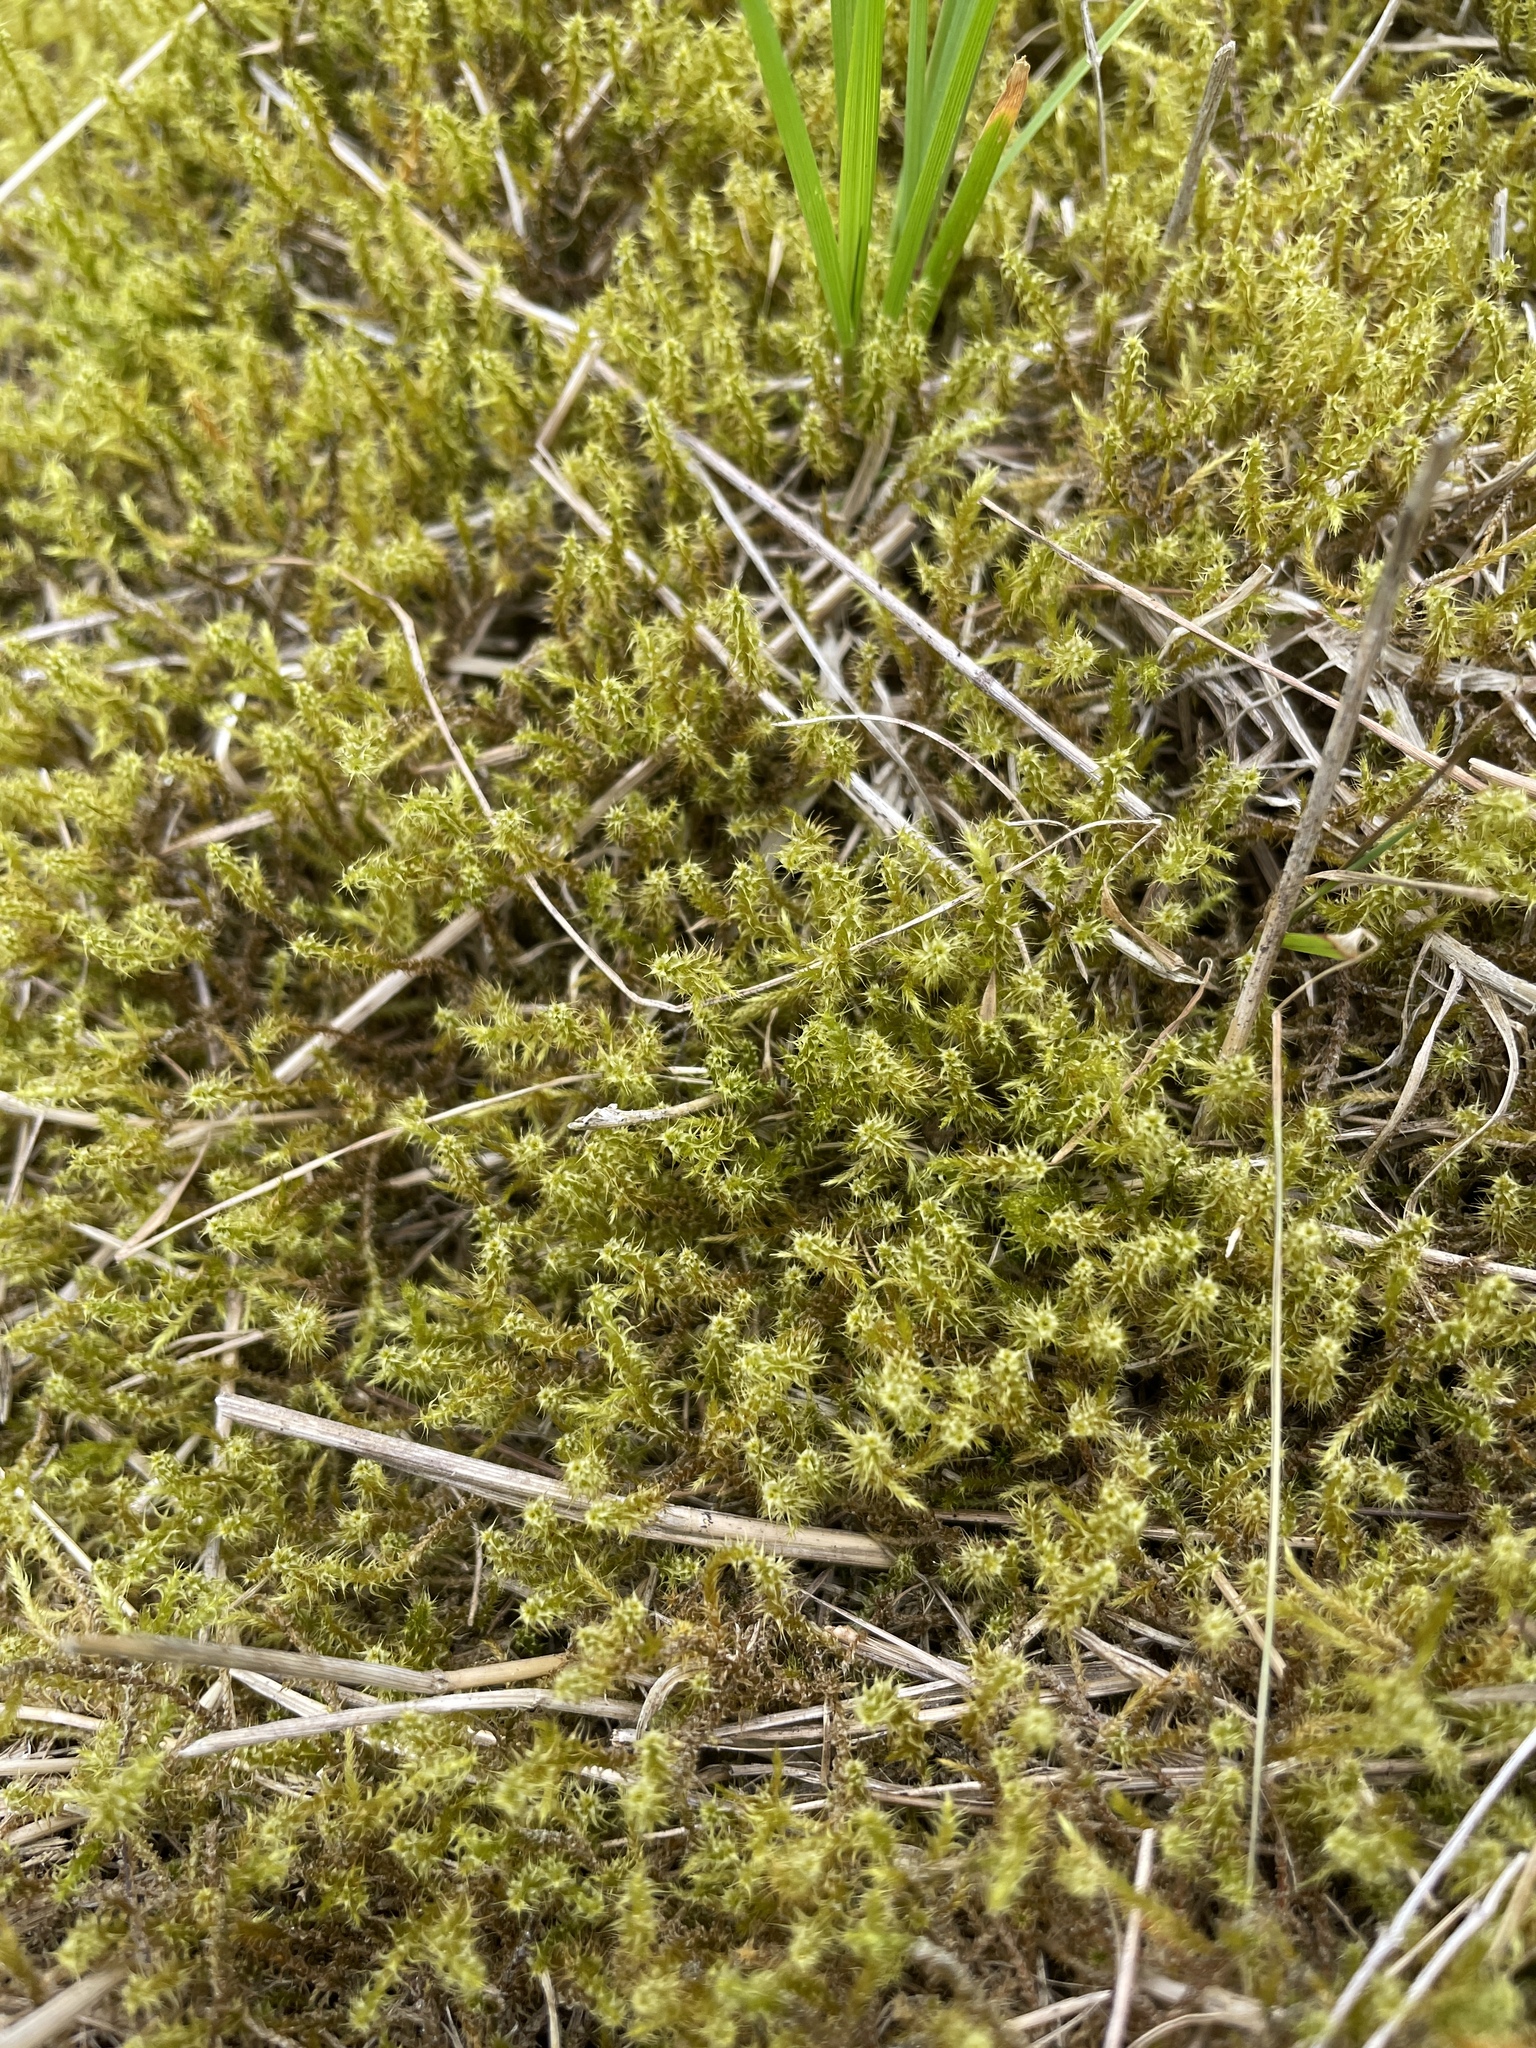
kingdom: Plantae
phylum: Bryophyta
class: Bryopsida
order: Hypnales
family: Hylocomiaceae
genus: Rhytidiadelphus
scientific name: Rhytidiadelphus squarrosus
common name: Springy turf-moss
